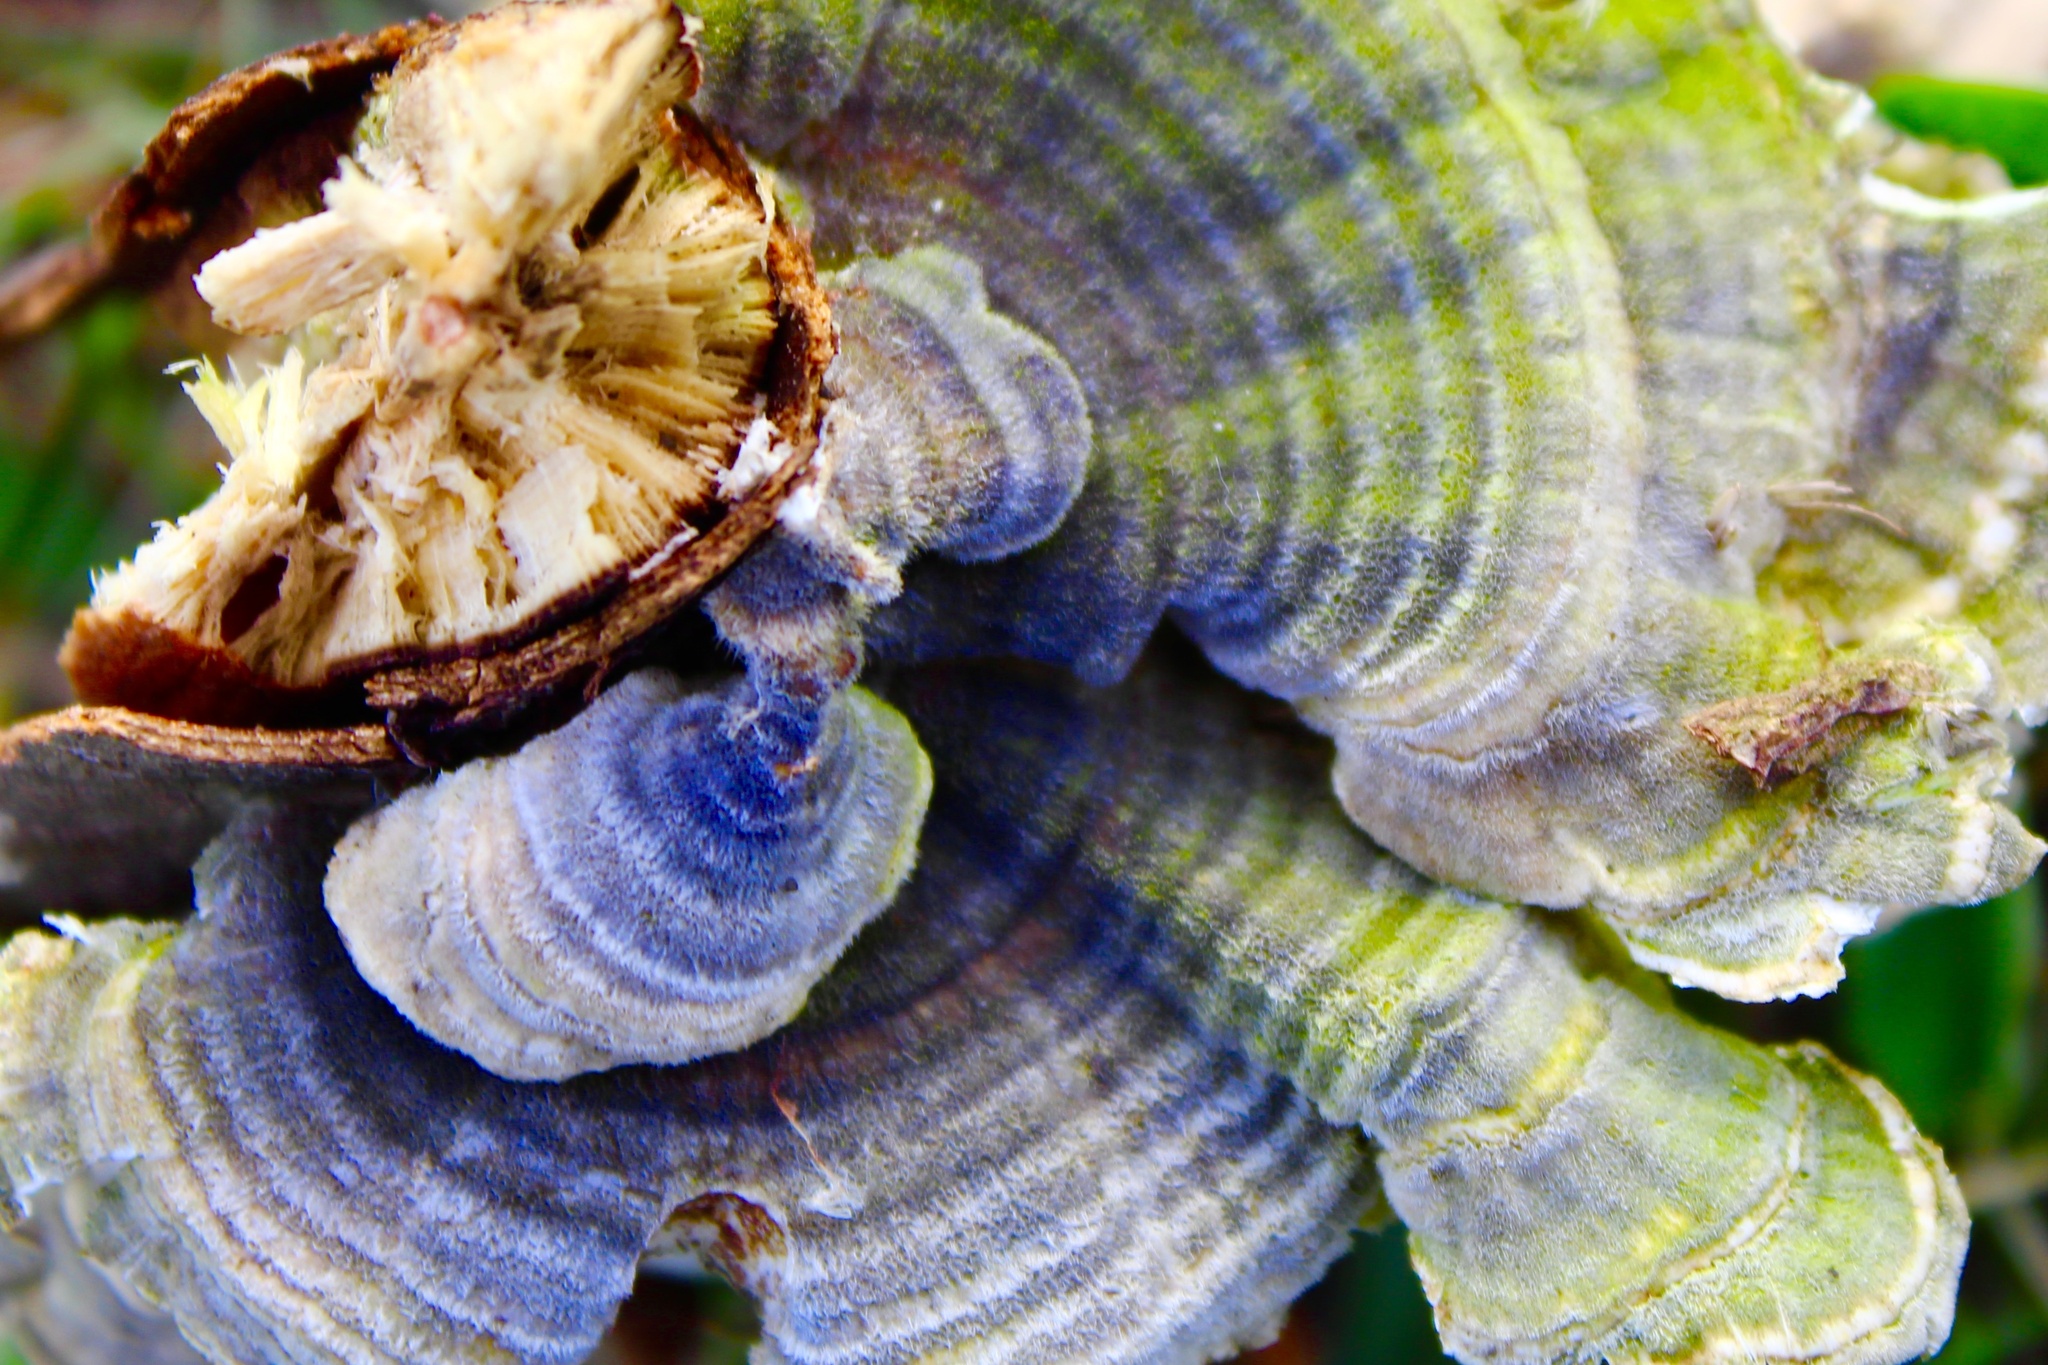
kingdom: Fungi
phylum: Basidiomycota
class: Agaricomycetes
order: Polyporales
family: Polyporaceae
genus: Trametes
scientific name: Trametes versicolor
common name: Turkeytail
